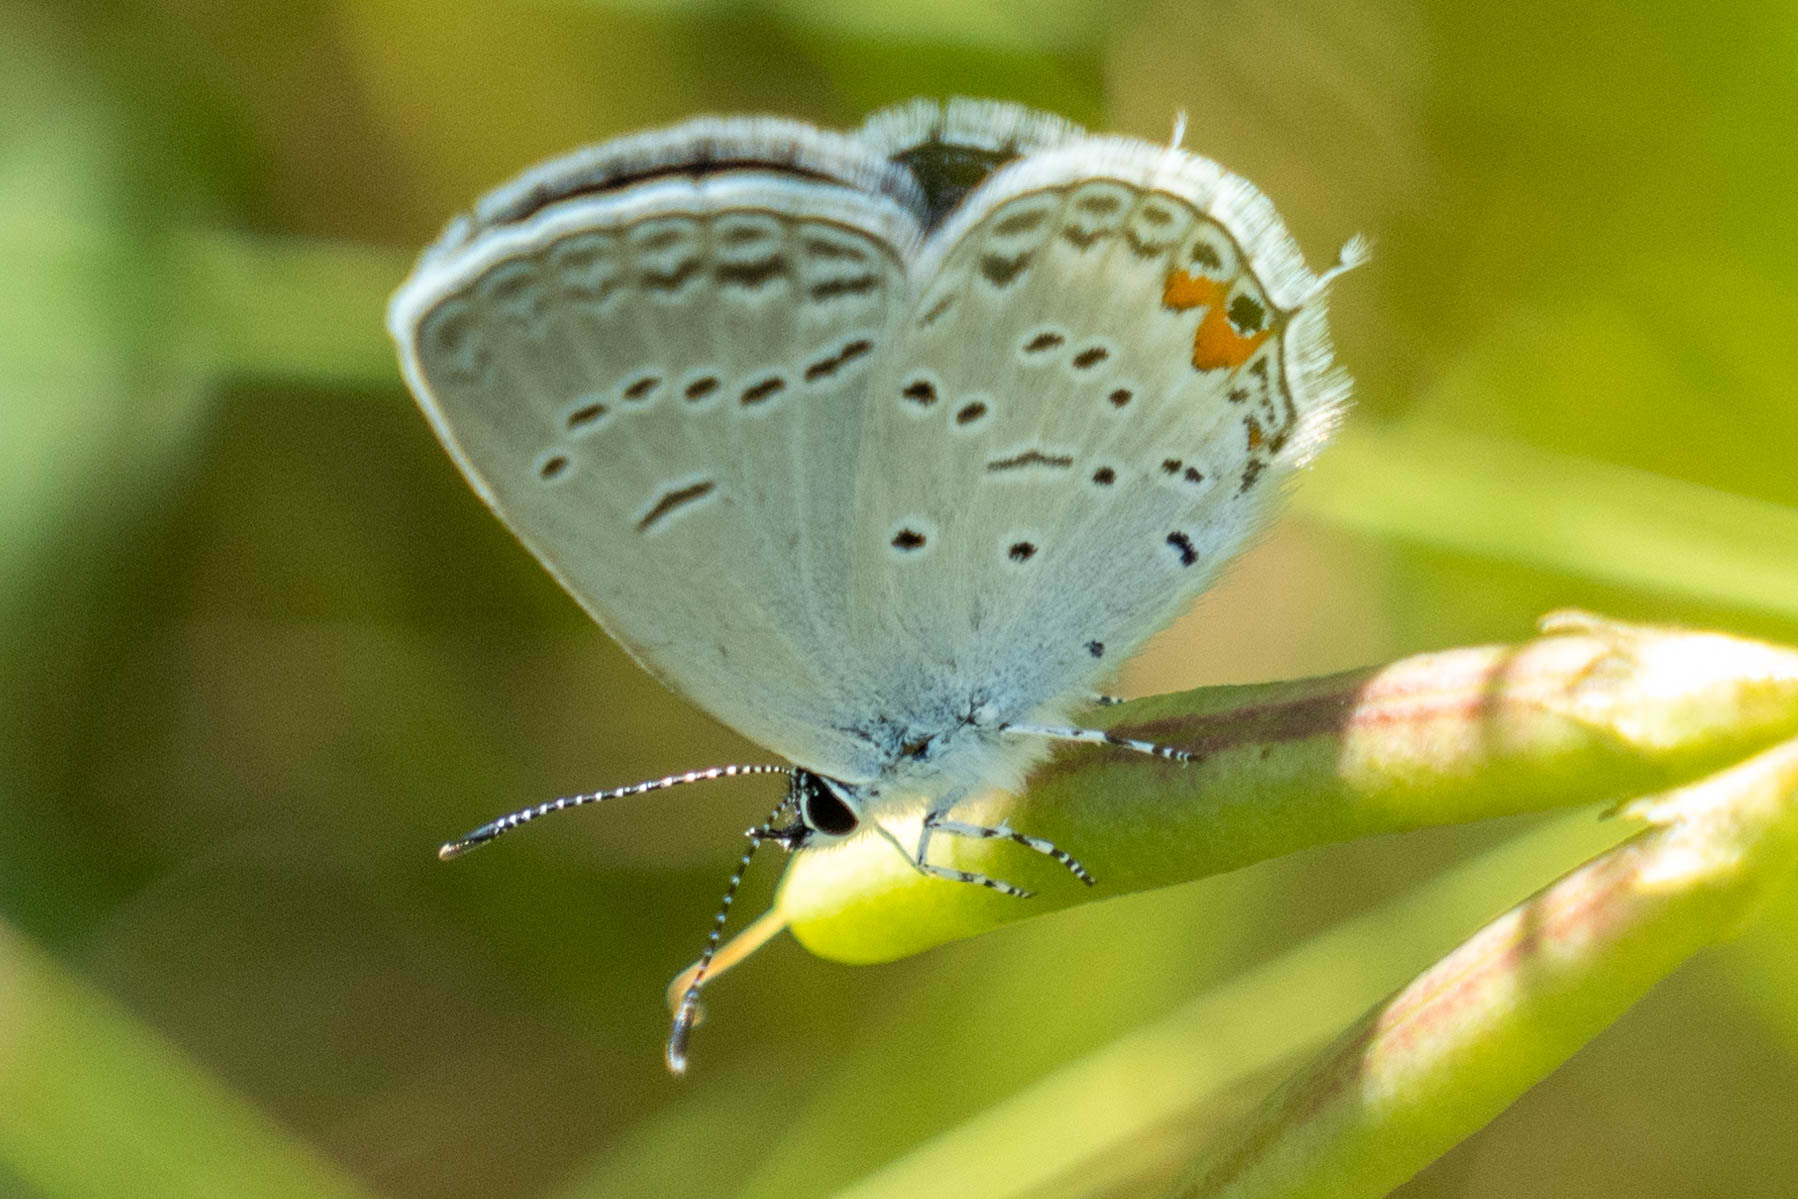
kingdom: Animalia
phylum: Arthropoda
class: Insecta
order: Lepidoptera
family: Lycaenidae
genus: Elkalyce
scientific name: Elkalyce comyntas
